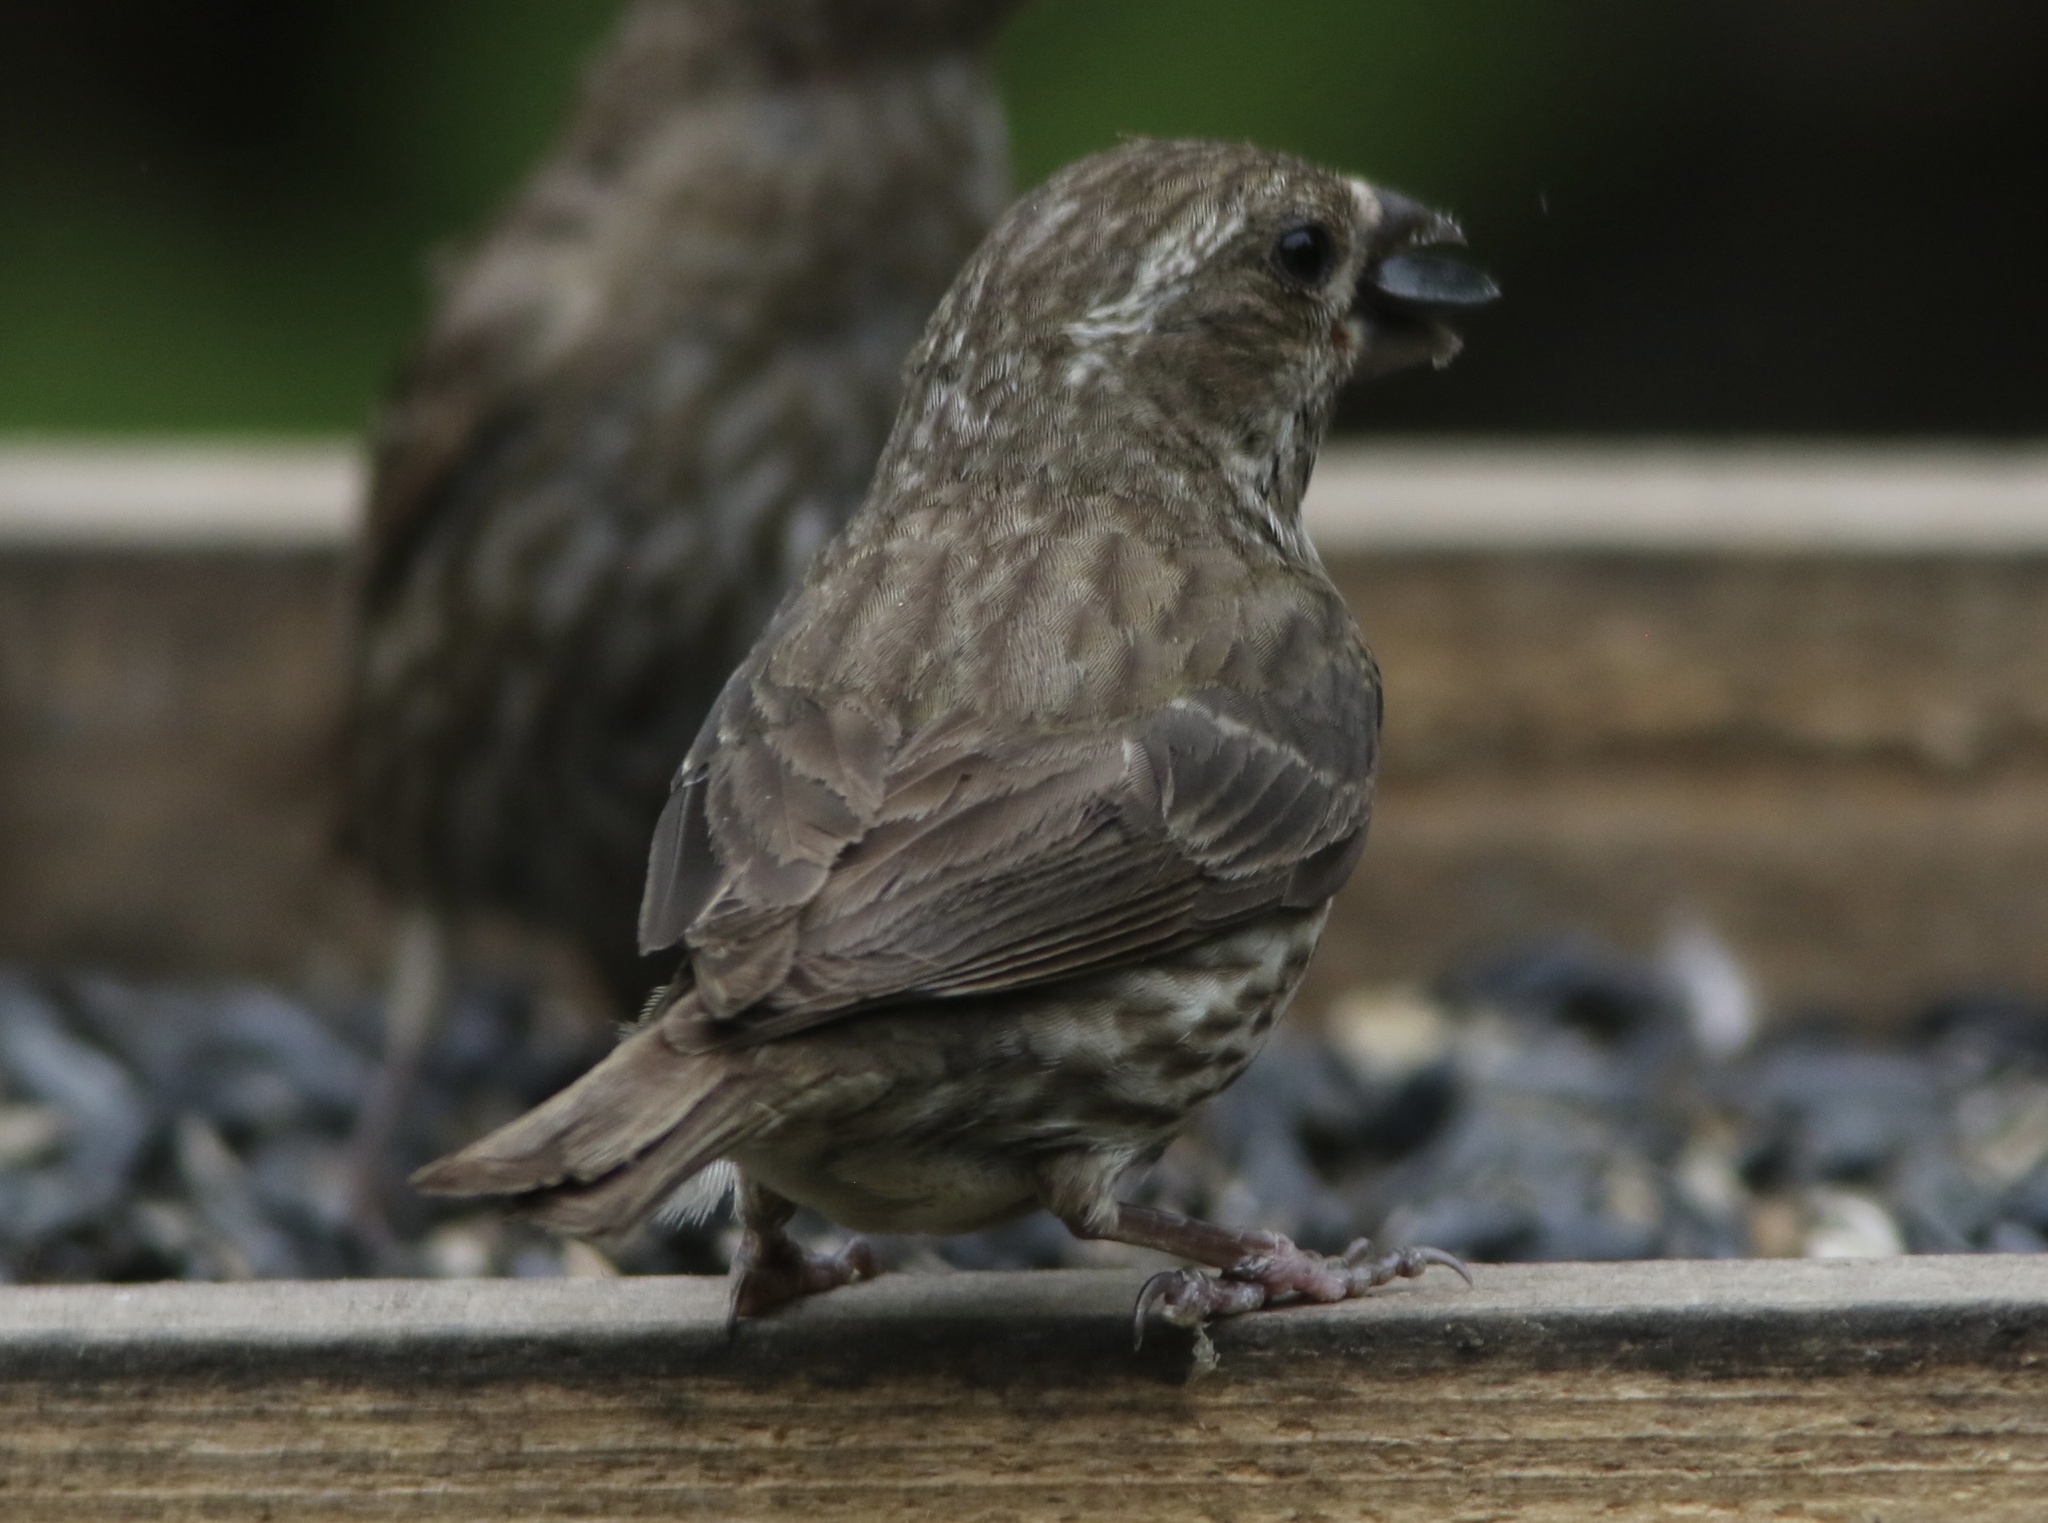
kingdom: Animalia
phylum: Chordata
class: Aves
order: Passeriformes
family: Fringillidae
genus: Haemorhous
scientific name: Haemorhous purpureus
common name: Purple finch
